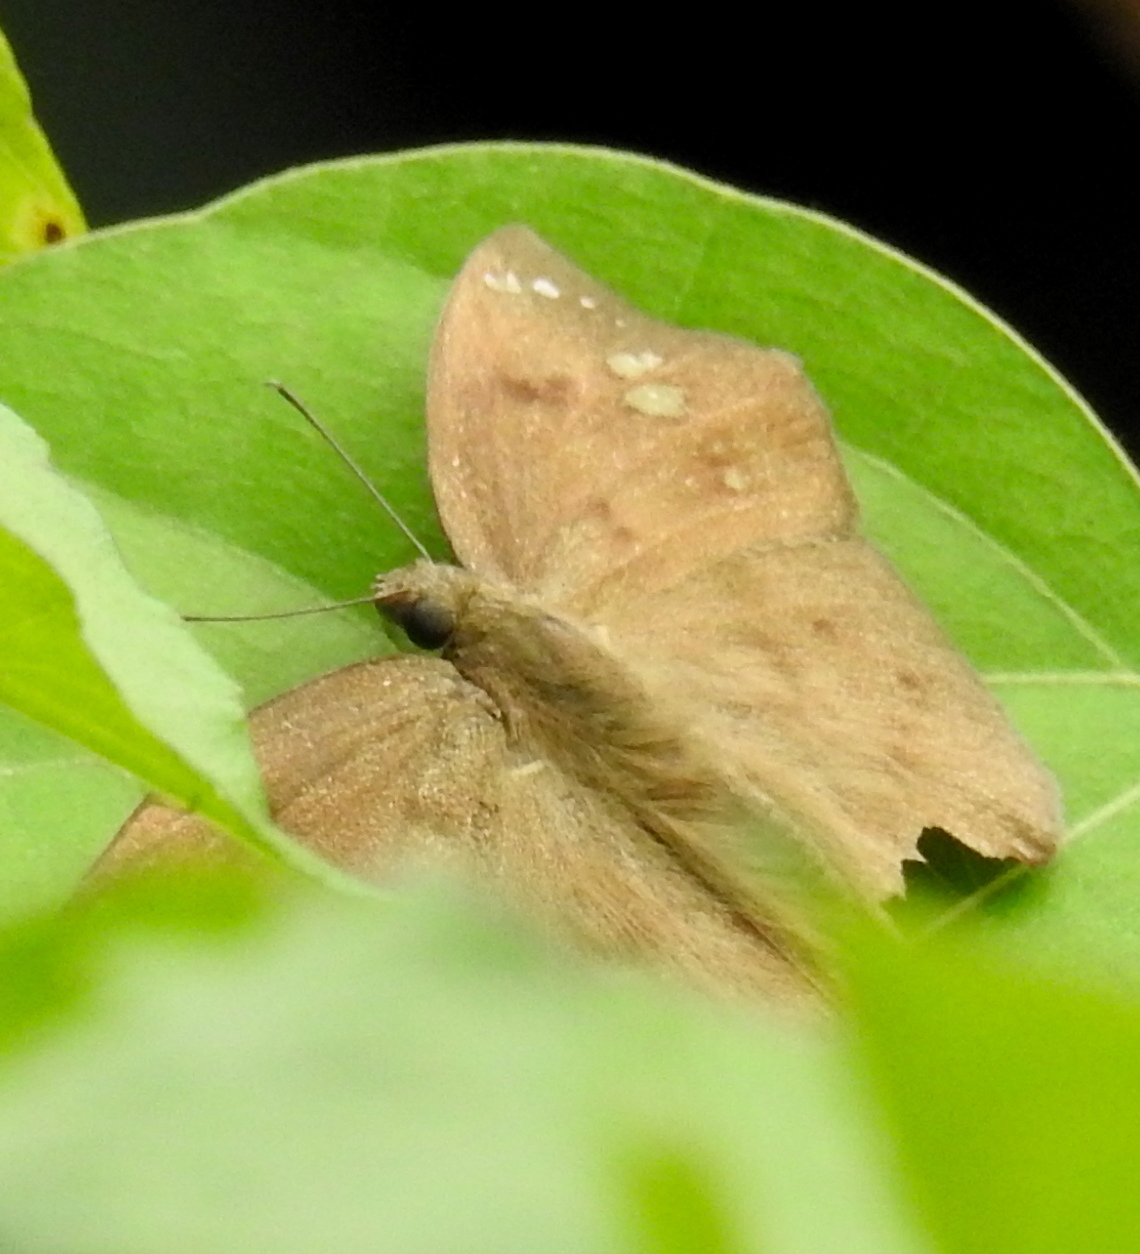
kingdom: Animalia
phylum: Arthropoda
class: Insecta
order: Lepidoptera
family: Hesperiidae
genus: Tagiades
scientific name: Tagiades japetus
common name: Pied flat
